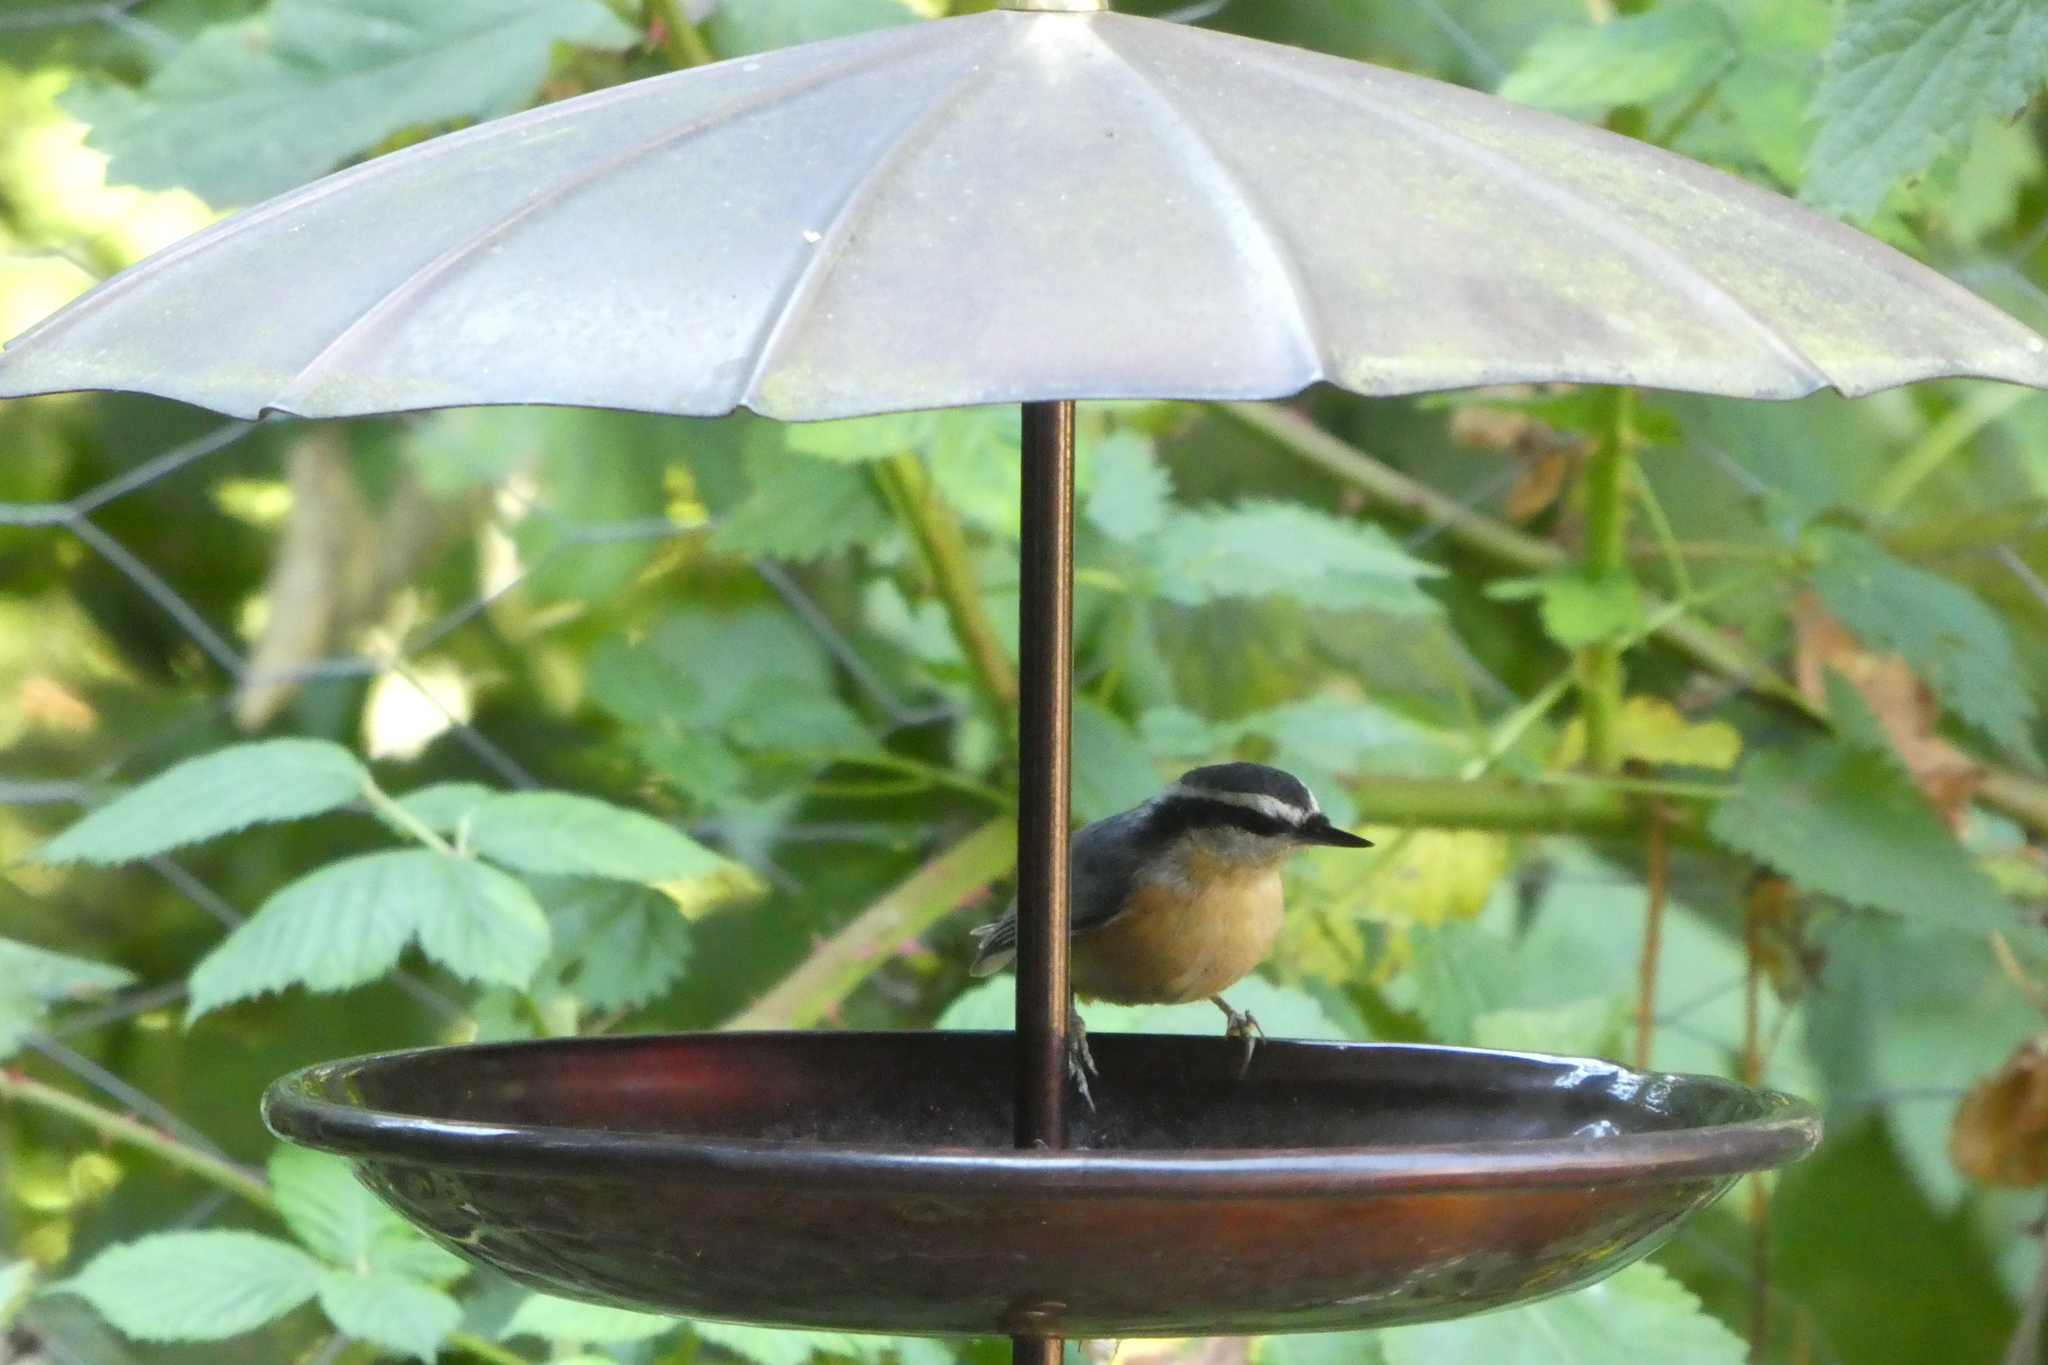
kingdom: Animalia
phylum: Chordata
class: Aves
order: Passeriformes
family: Sittidae
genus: Sitta
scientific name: Sitta canadensis
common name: Red-breasted nuthatch
